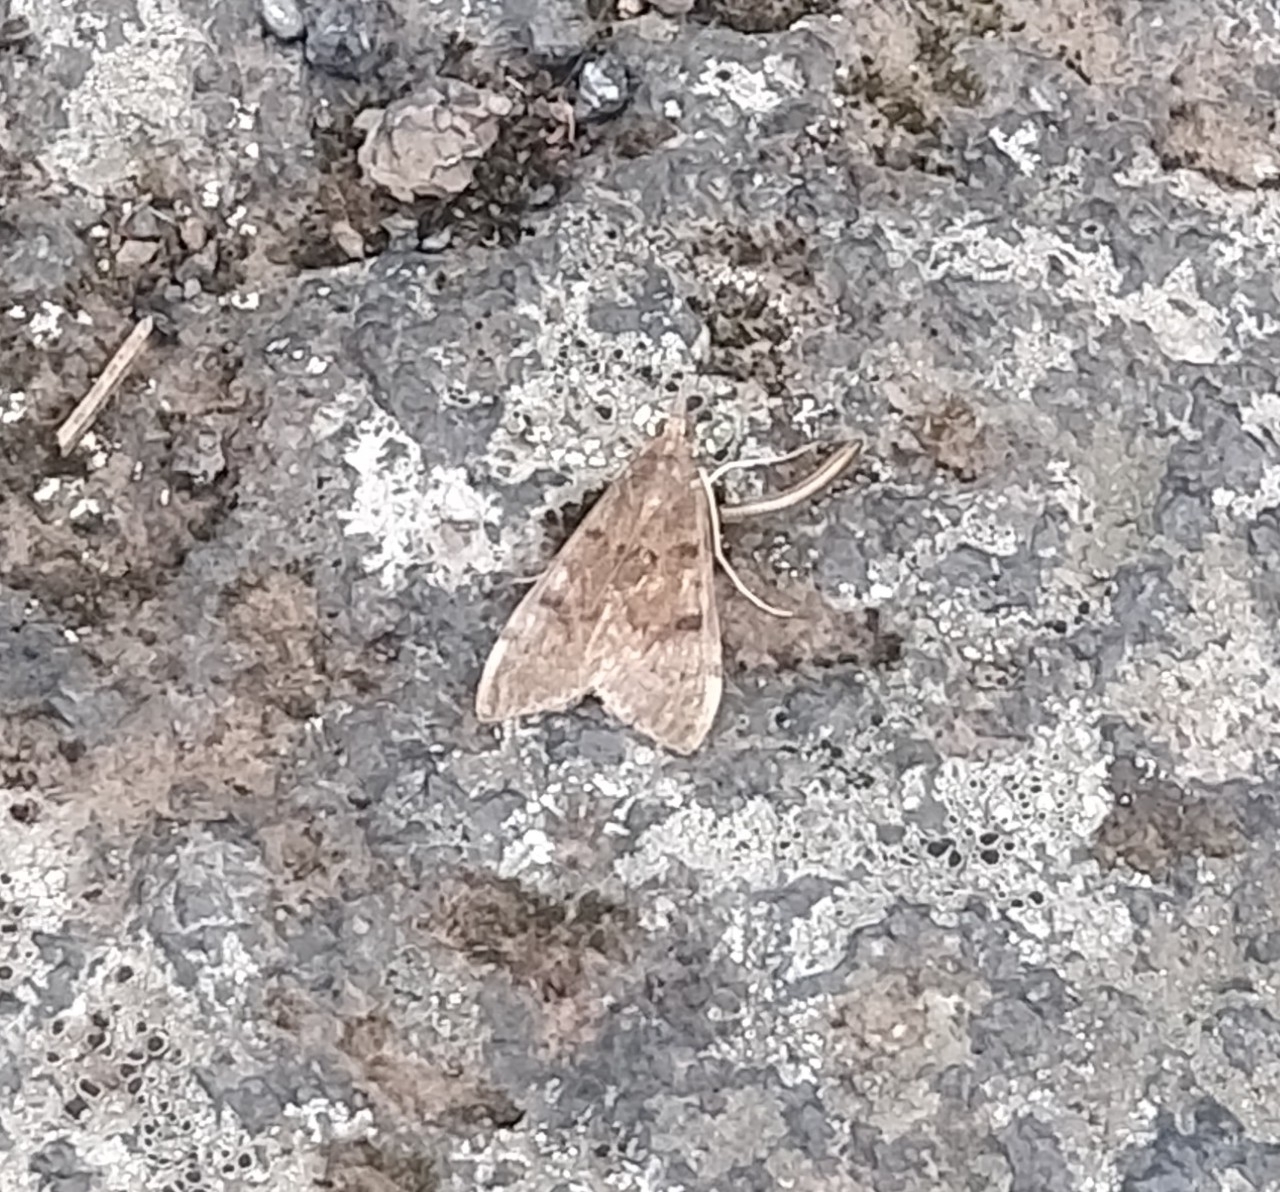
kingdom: Animalia
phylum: Arthropoda
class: Insecta
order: Lepidoptera
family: Crambidae
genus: Uresiphita
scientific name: Uresiphita gilvata
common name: Yellow-underwing pearl
